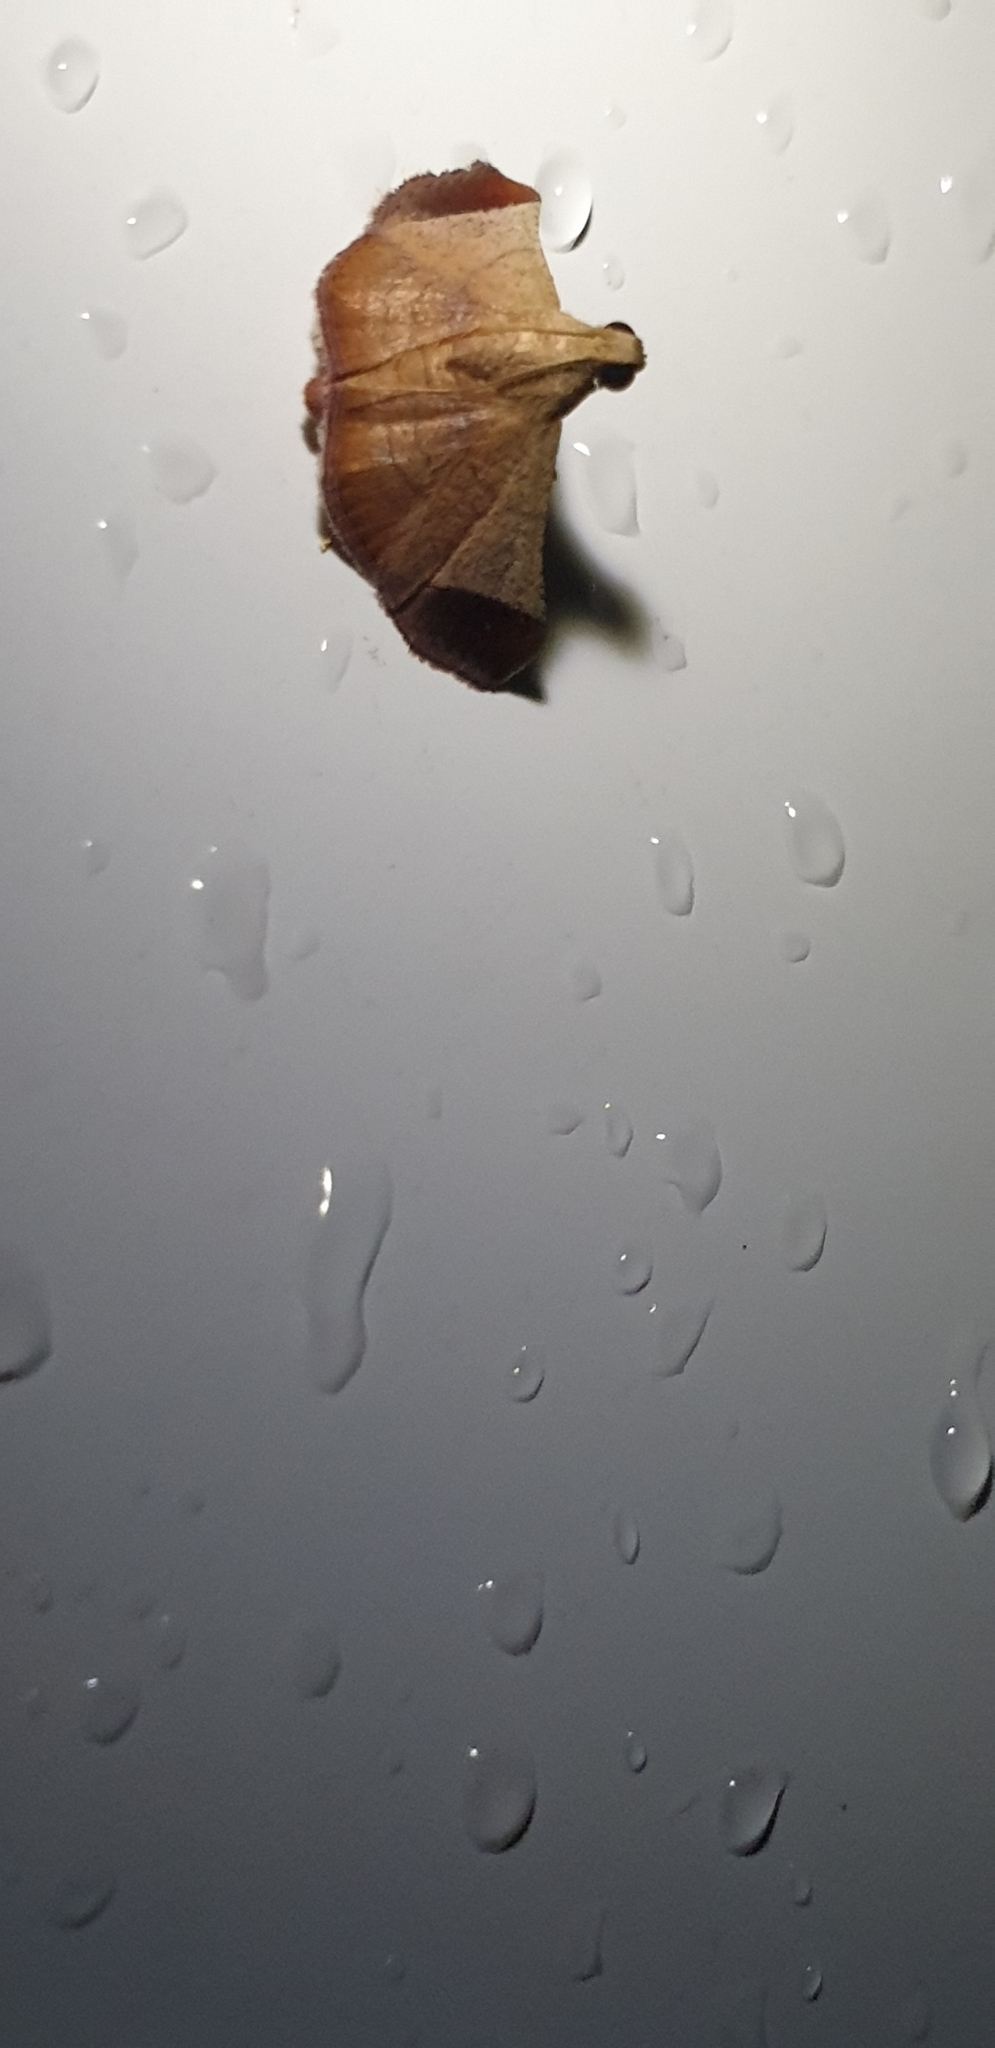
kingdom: Animalia
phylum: Arthropoda
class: Insecta
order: Lepidoptera
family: Pyralidae
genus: Curena
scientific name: Curena externalis
